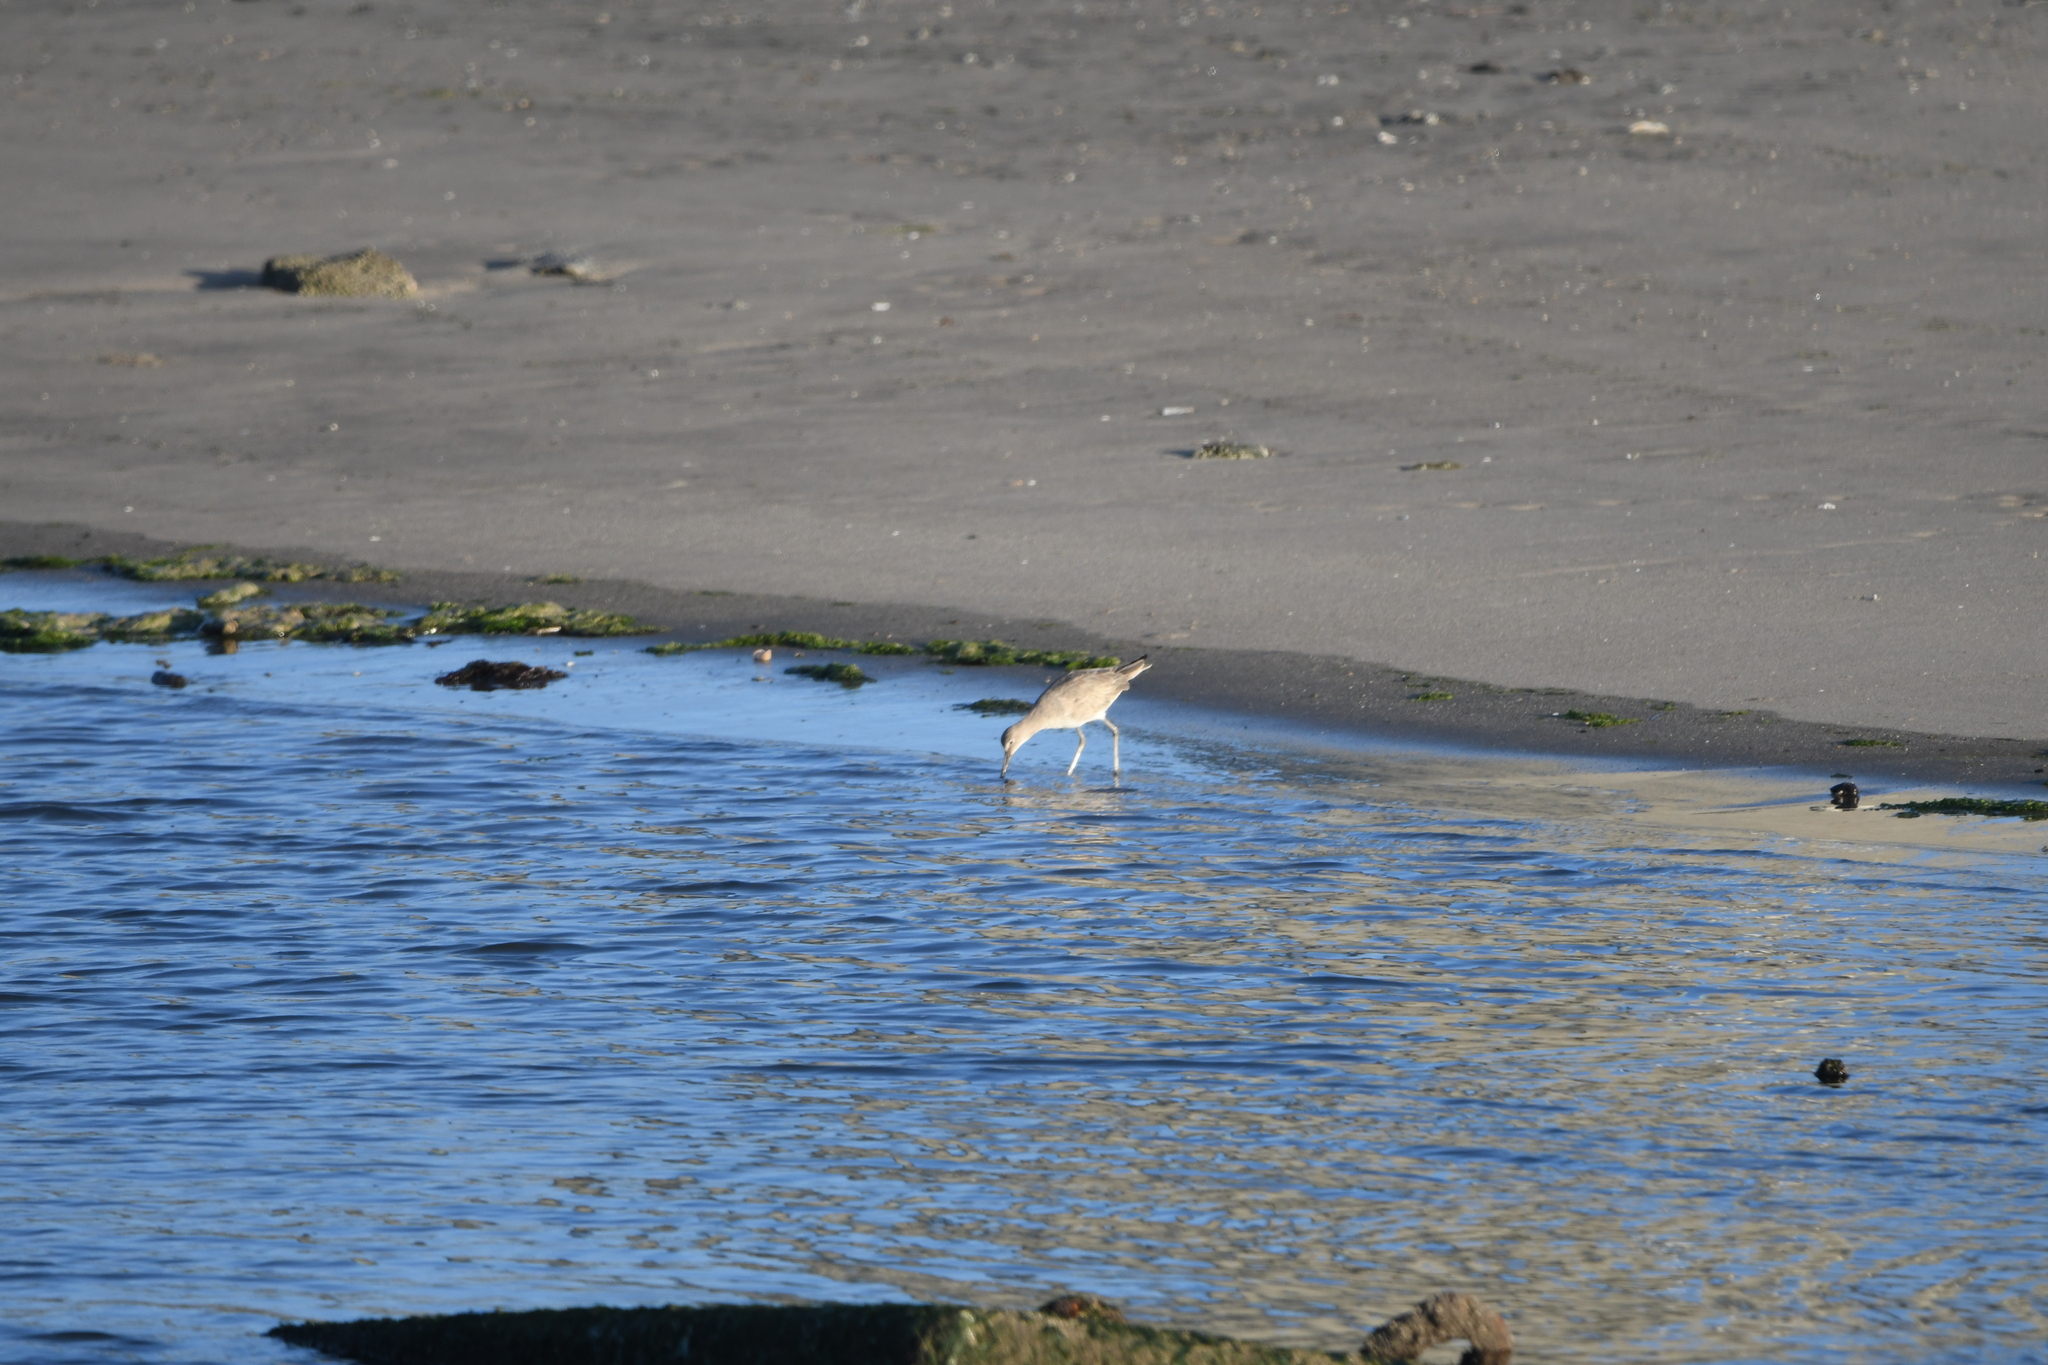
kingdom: Animalia
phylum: Chordata
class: Aves
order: Charadriiformes
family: Scolopacidae
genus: Tringa
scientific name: Tringa semipalmata
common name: Willet
